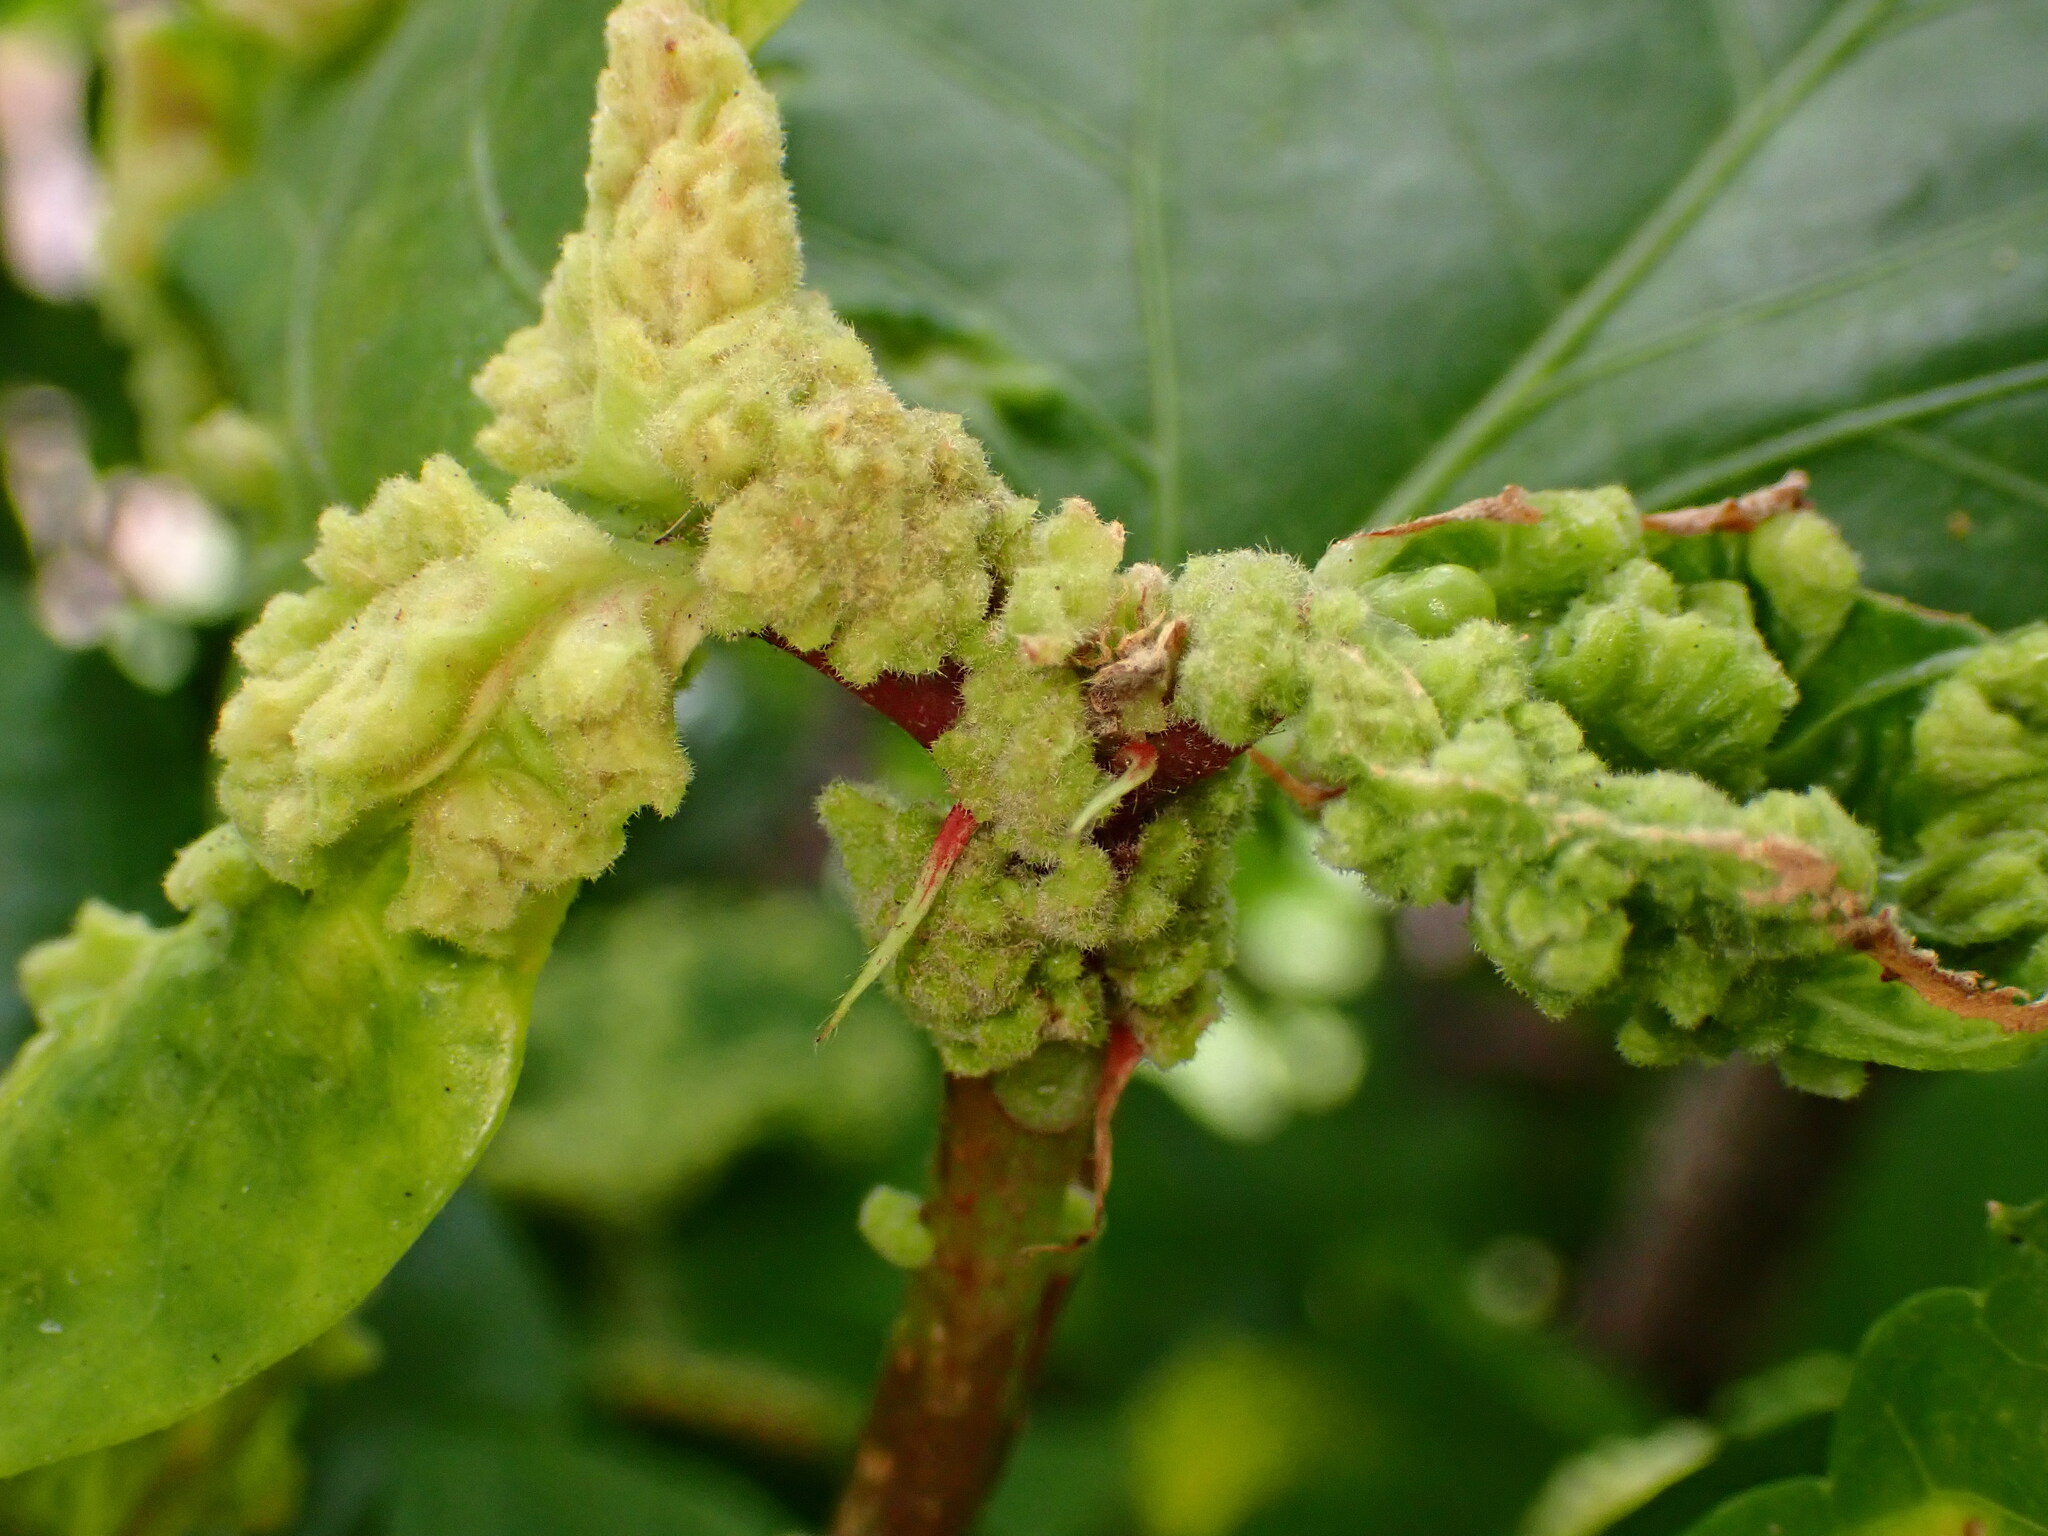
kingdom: Animalia
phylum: Arthropoda
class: Arachnida
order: Trombidiformes
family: Eriophyidae
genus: Aceria
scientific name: Aceria hibisci
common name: Mite
